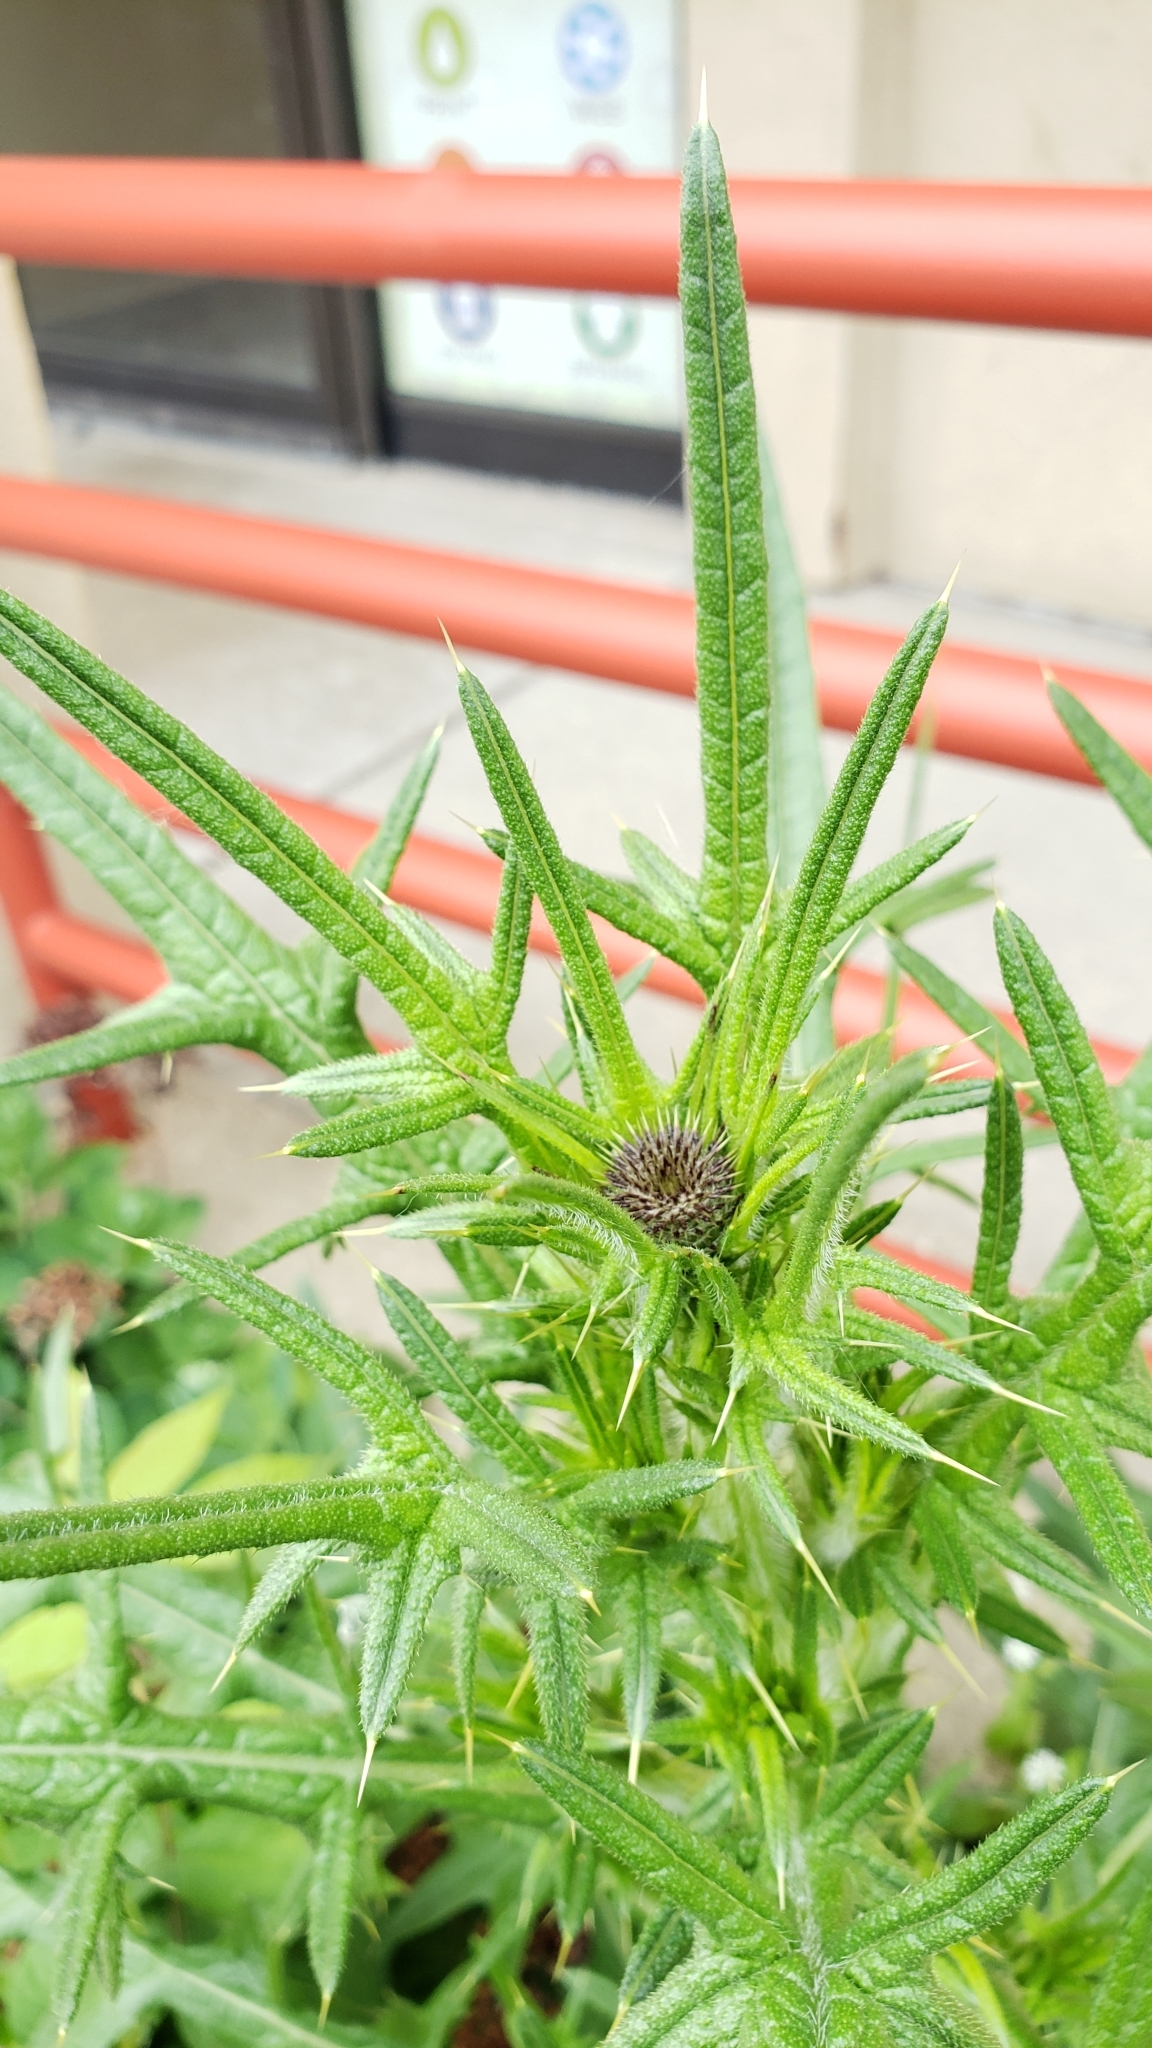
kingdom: Plantae
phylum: Tracheophyta
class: Magnoliopsida
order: Asterales
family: Asteraceae
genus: Cirsium
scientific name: Cirsium vulgare
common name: Bull thistle
